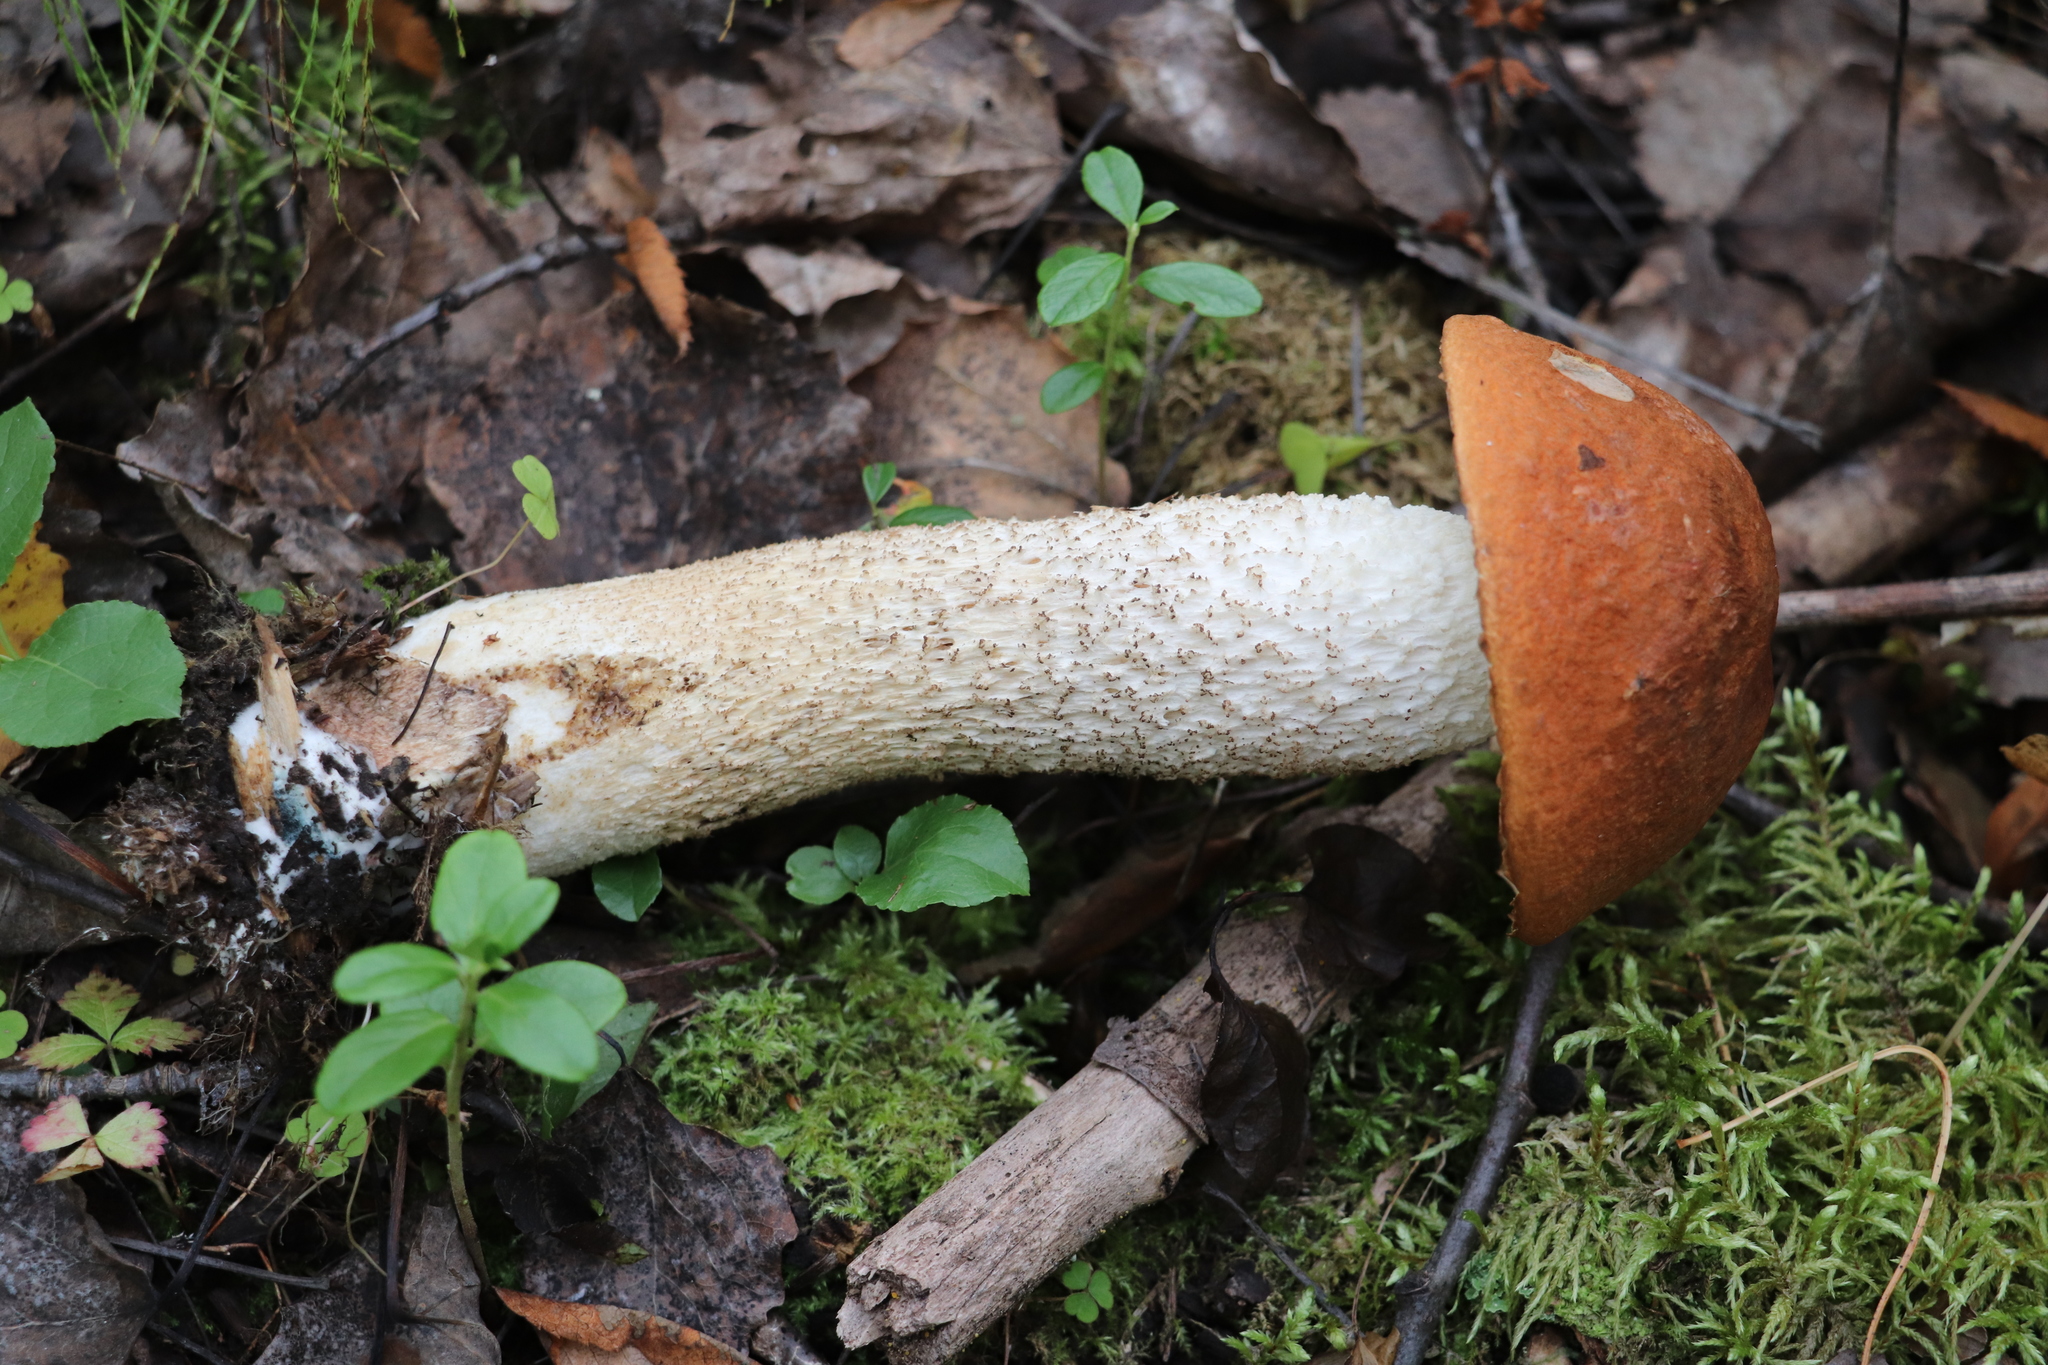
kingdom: Fungi
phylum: Basidiomycota
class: Agaricomycetes
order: Boletales
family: Boletaceae
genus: Leccinum
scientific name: Leccinum albostipitatum
